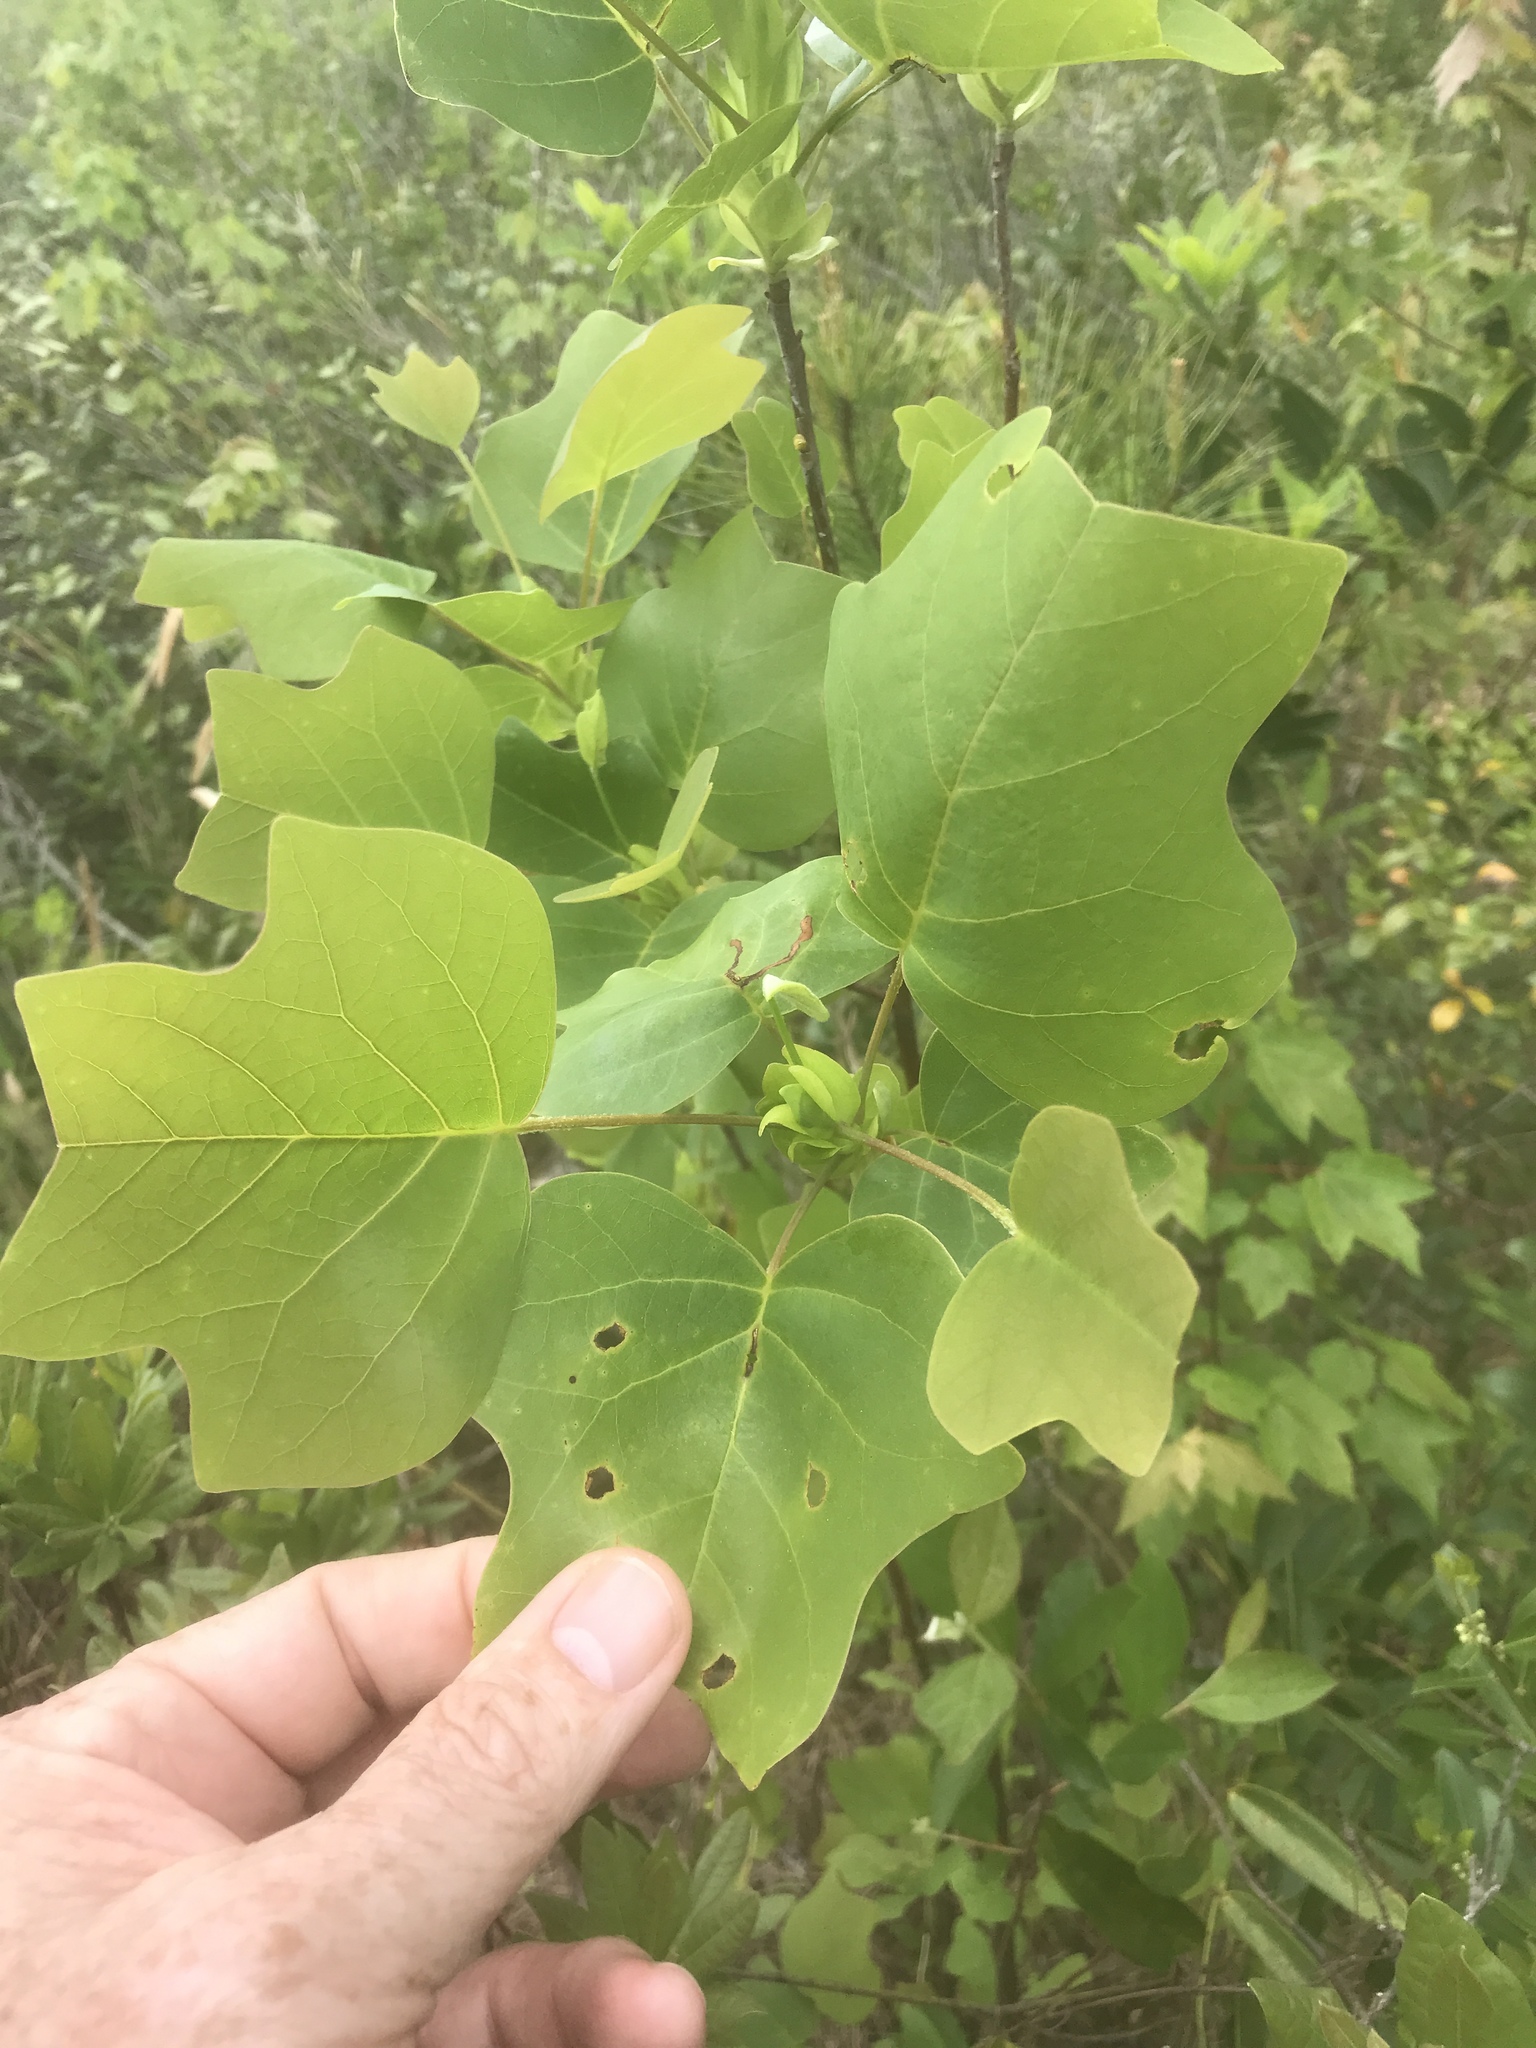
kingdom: Plantae
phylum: Tracheophyta
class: Magnoliopsida
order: Magnoliales
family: Magnoliaceae
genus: Liriodendron
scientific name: Liriodendron tulipifera
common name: Tulip tree
